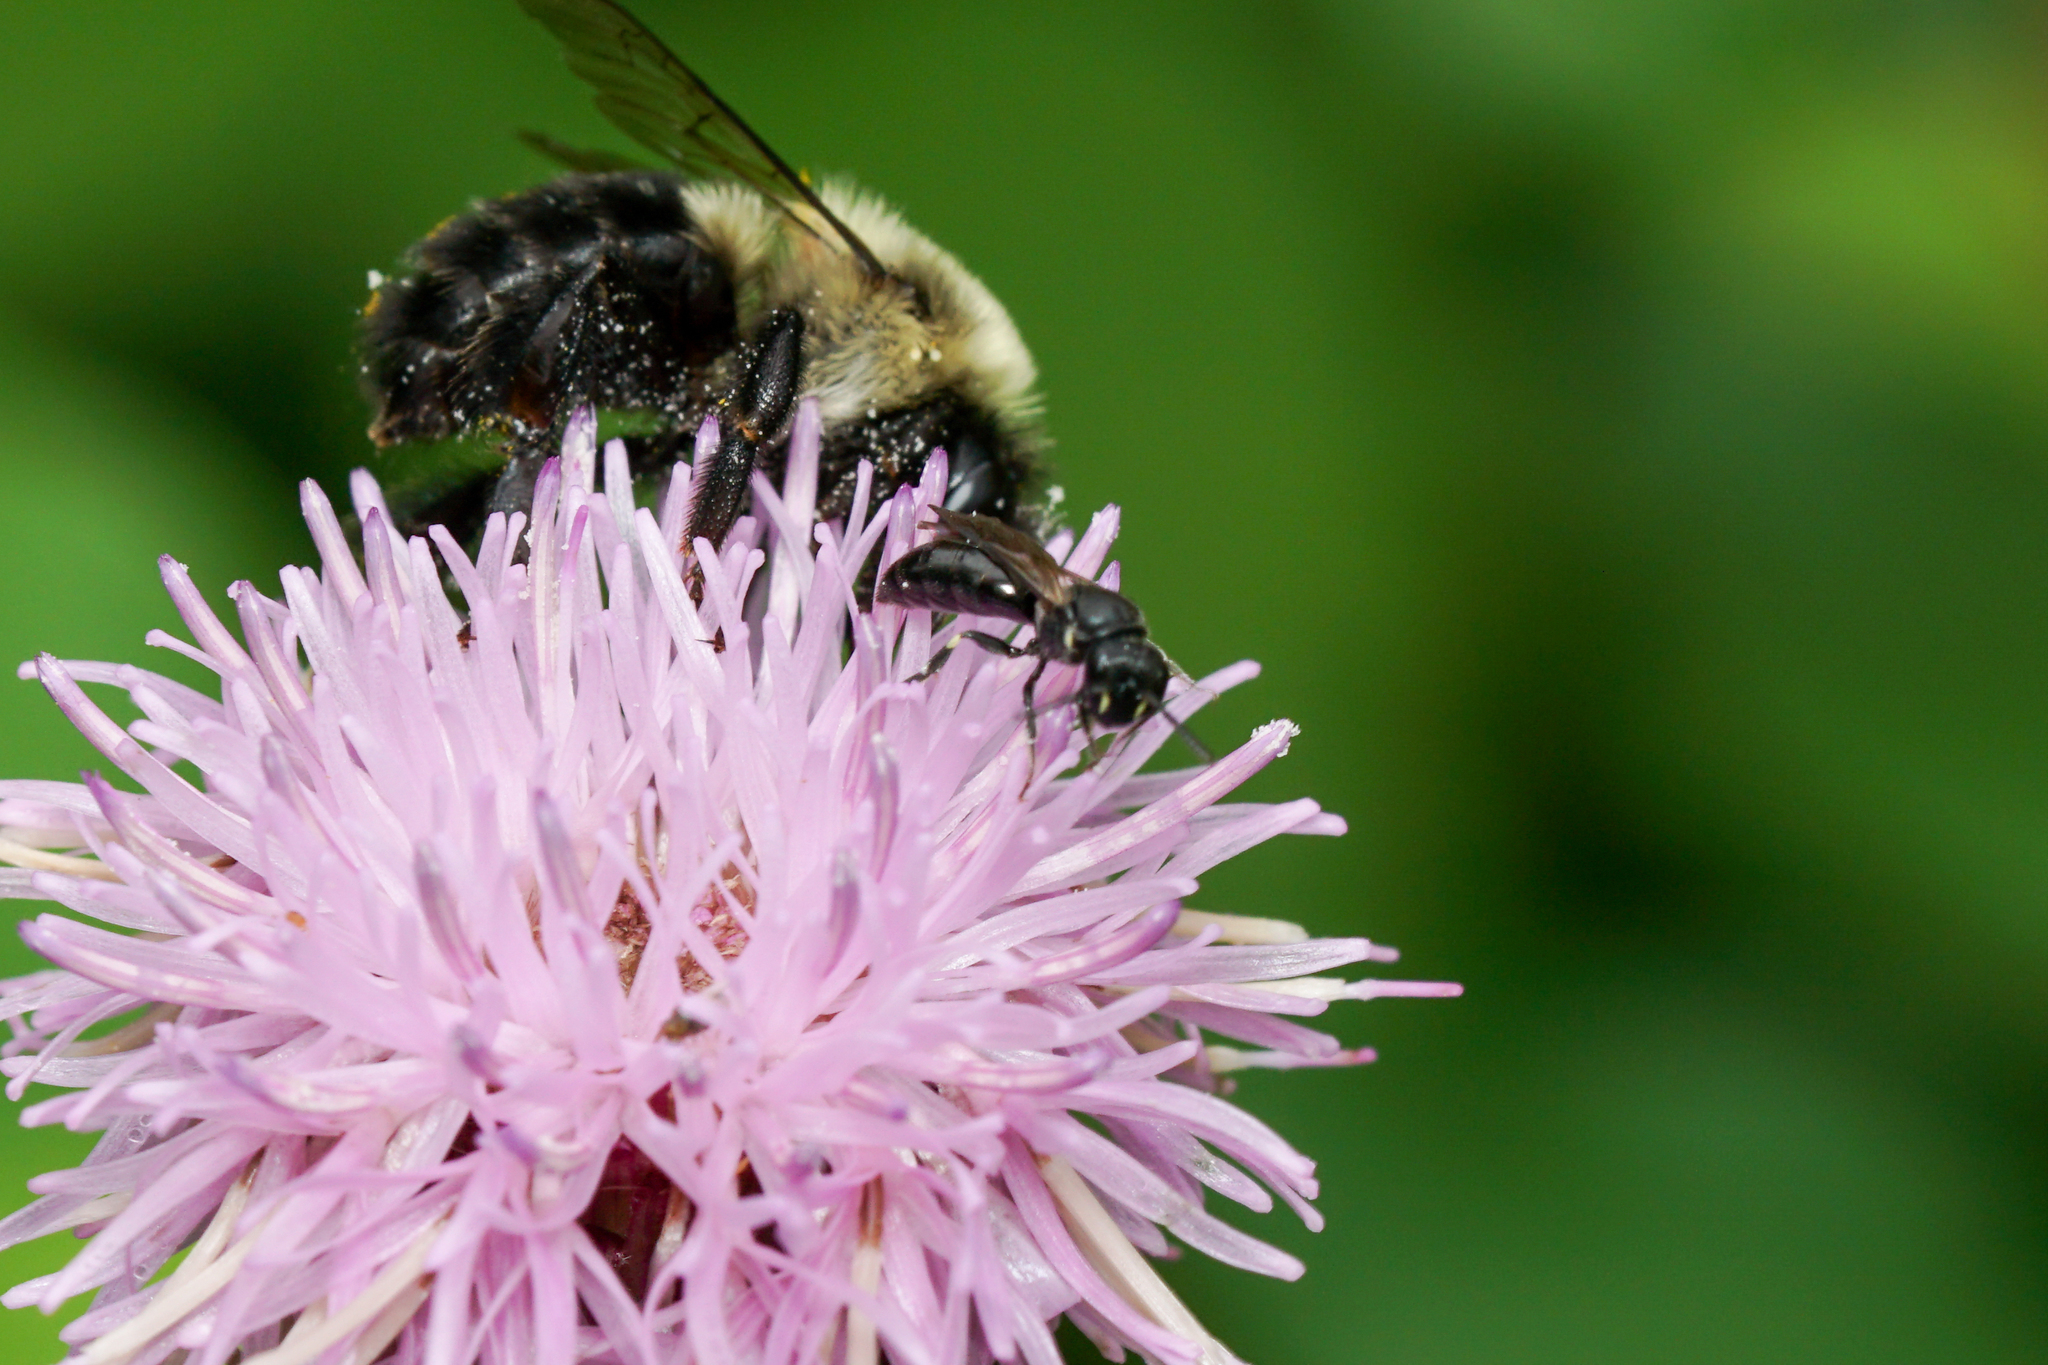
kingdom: Animalia
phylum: Arthropoda
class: Insecta
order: Hymenoptera
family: Colletidae
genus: Hylaeus
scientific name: Hylaeus mesillae
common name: Mesilla masked bee
